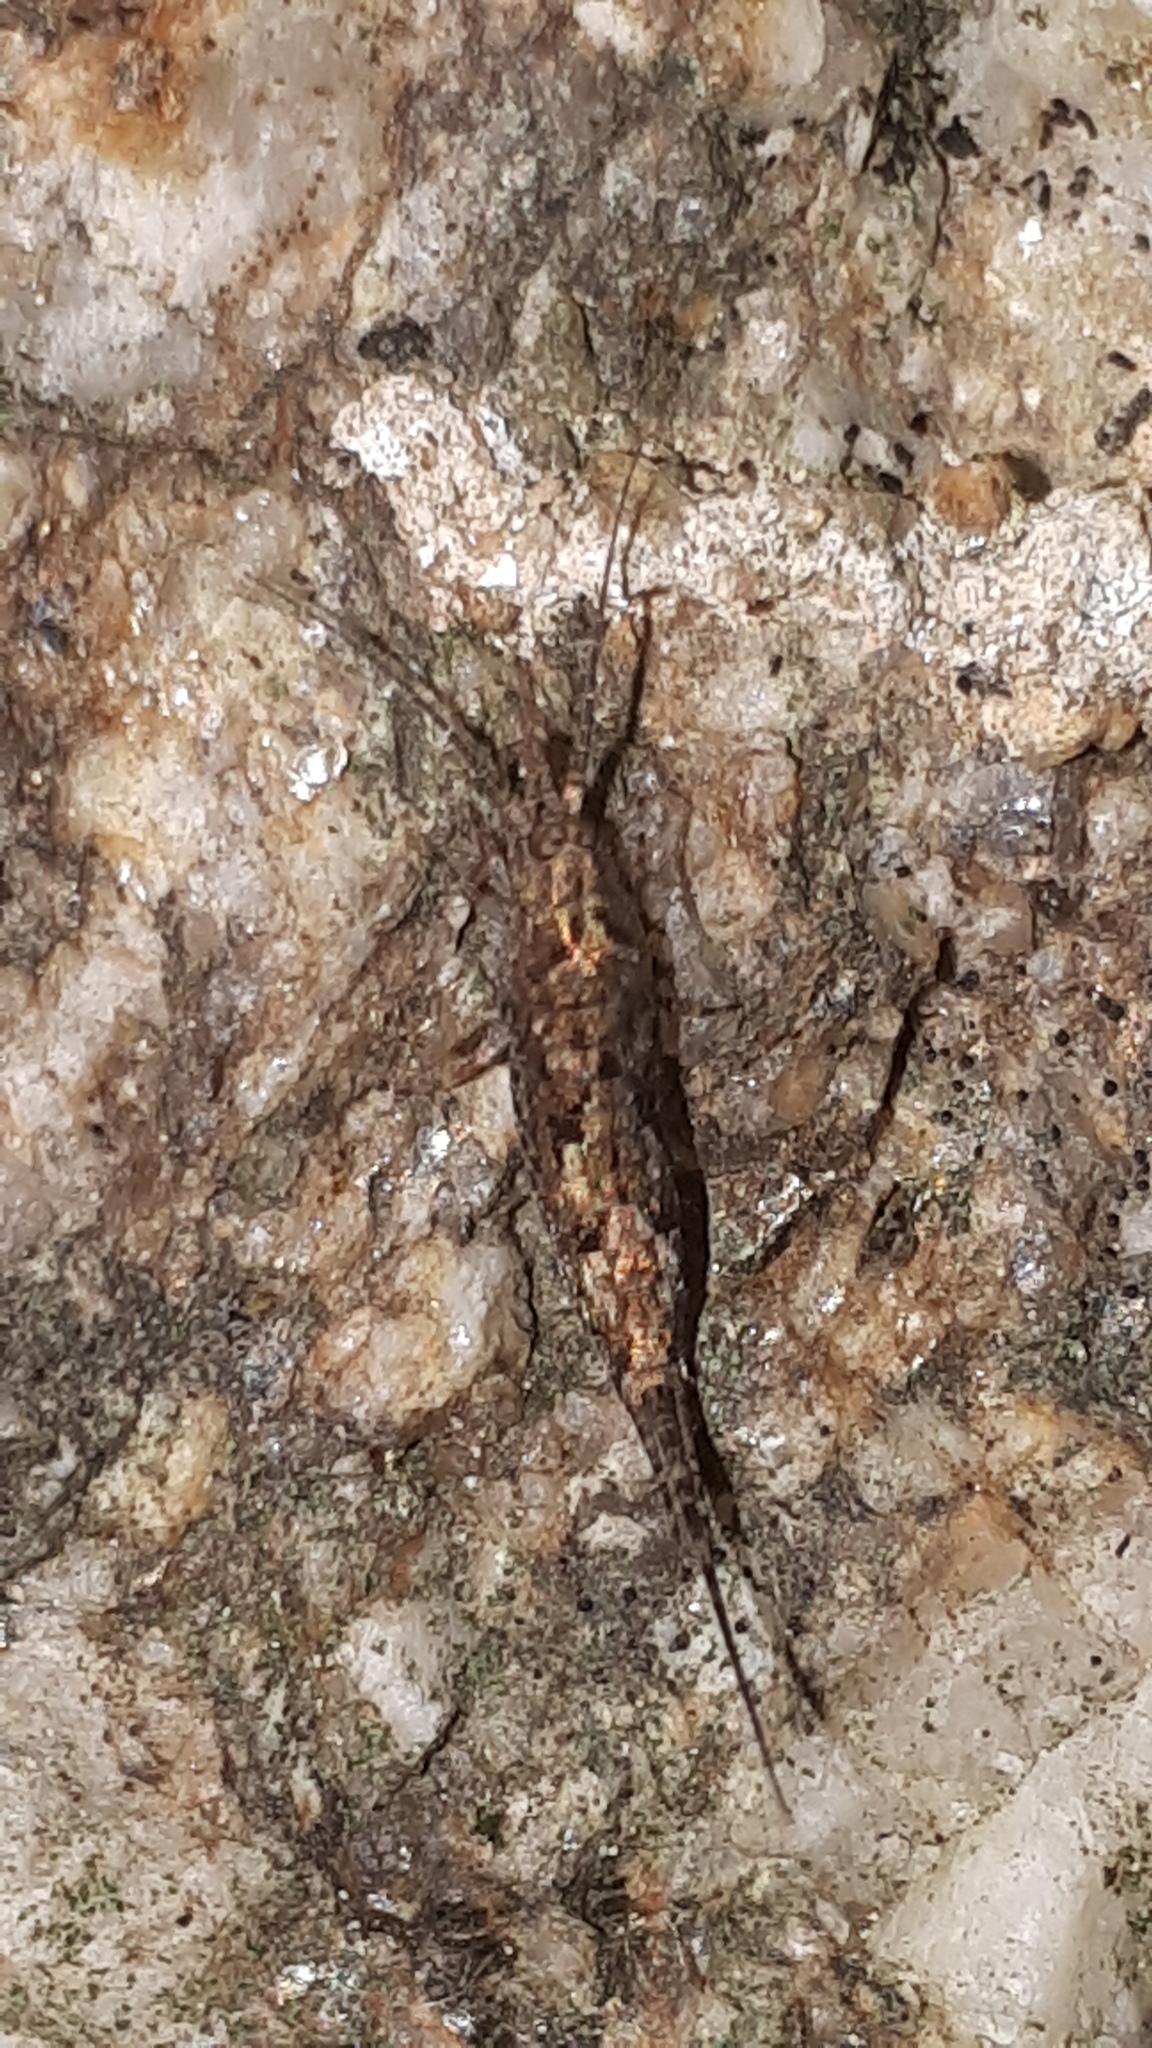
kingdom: Animalia
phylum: Arthropoda
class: Insecta
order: Archaeognatha
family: Machilidae
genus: Lepismachilis
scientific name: Lepismachilis y-signata
